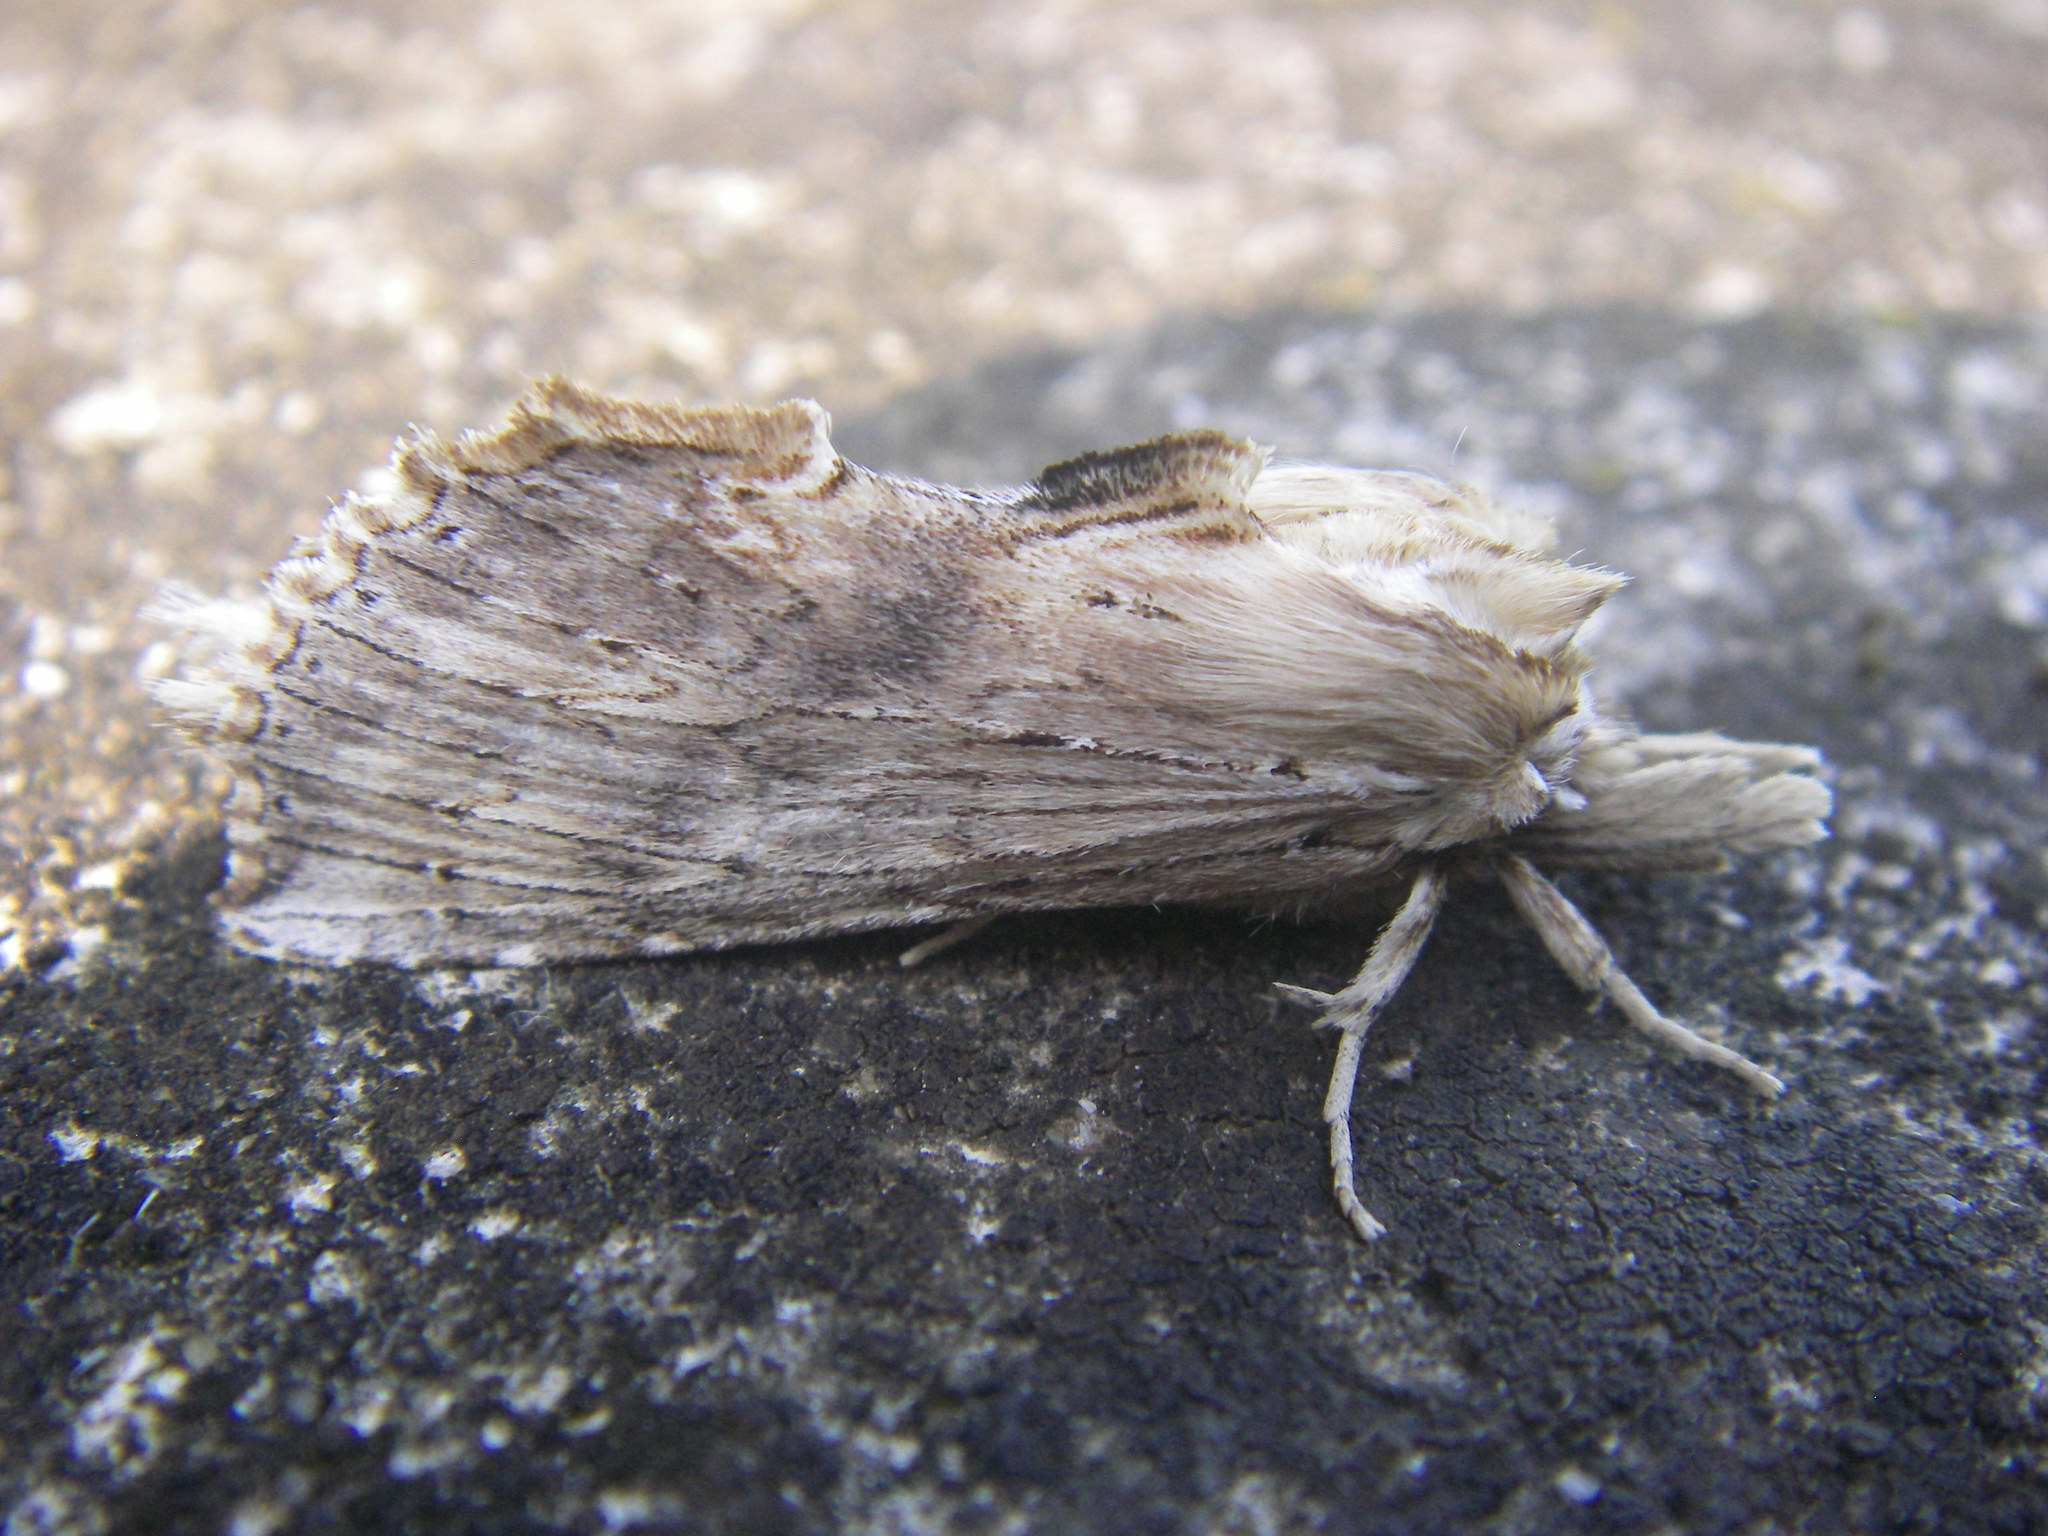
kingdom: Animalia
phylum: Arthropoda
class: Insecta
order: Lepidoptera
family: Notodontidae
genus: Pterostoma
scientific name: Pterostoma palpina
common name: Pale prominent
